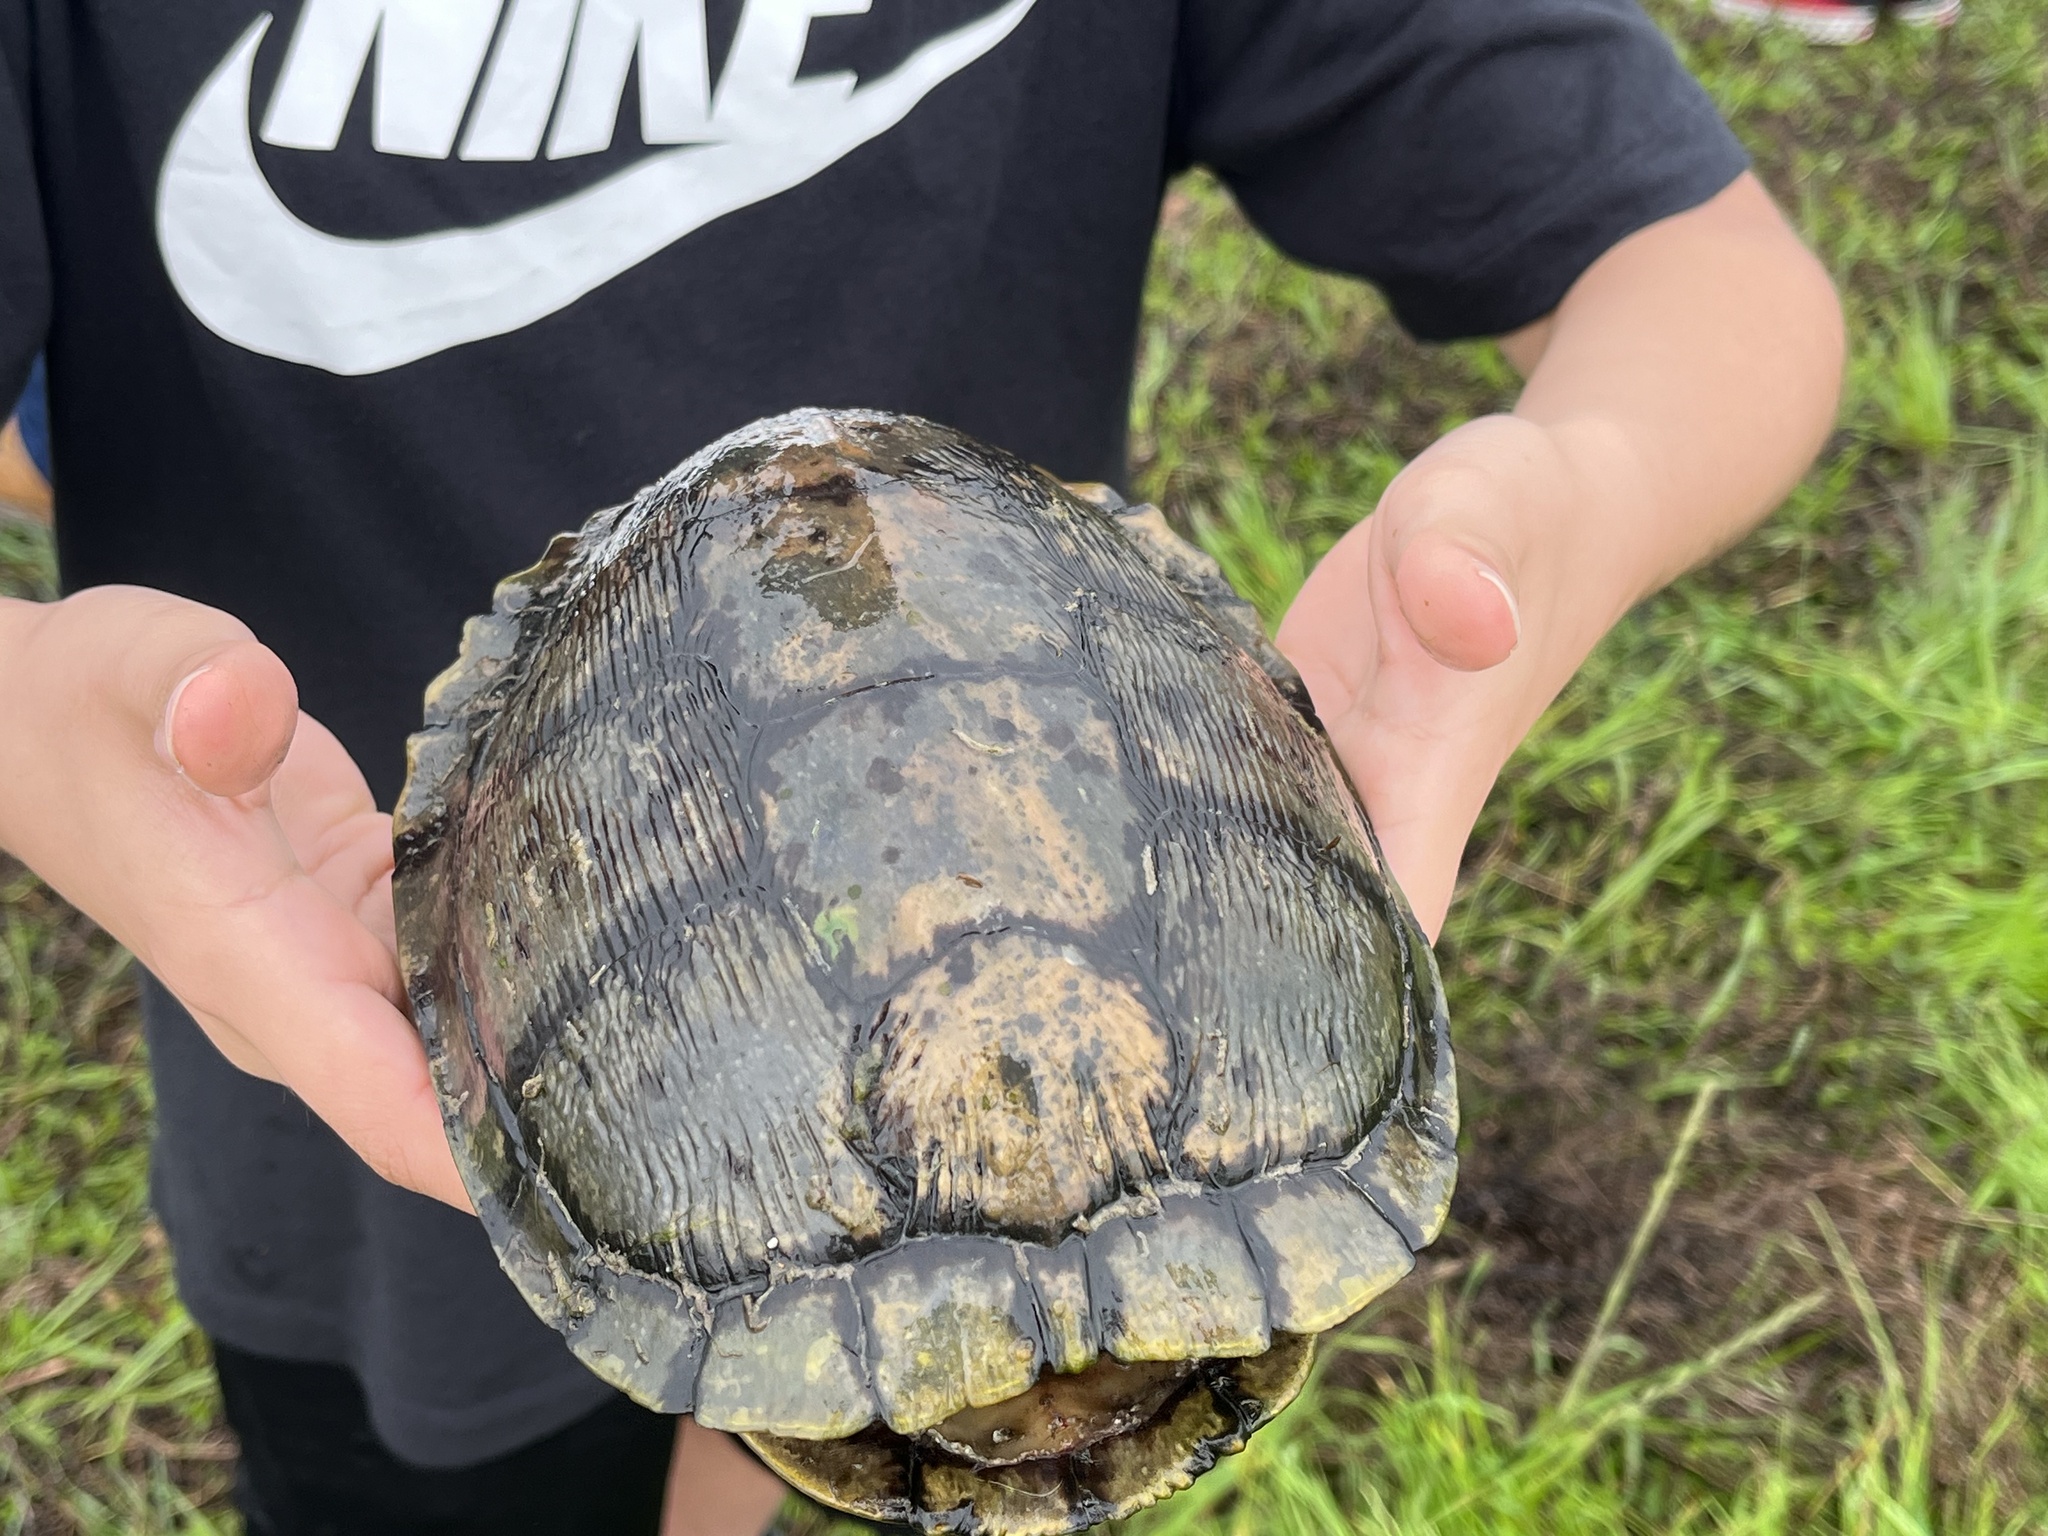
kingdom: Animalia
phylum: Chordata
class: Testudines
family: Emydidae
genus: Trachemys
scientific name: Trachemys scripta
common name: Slider
